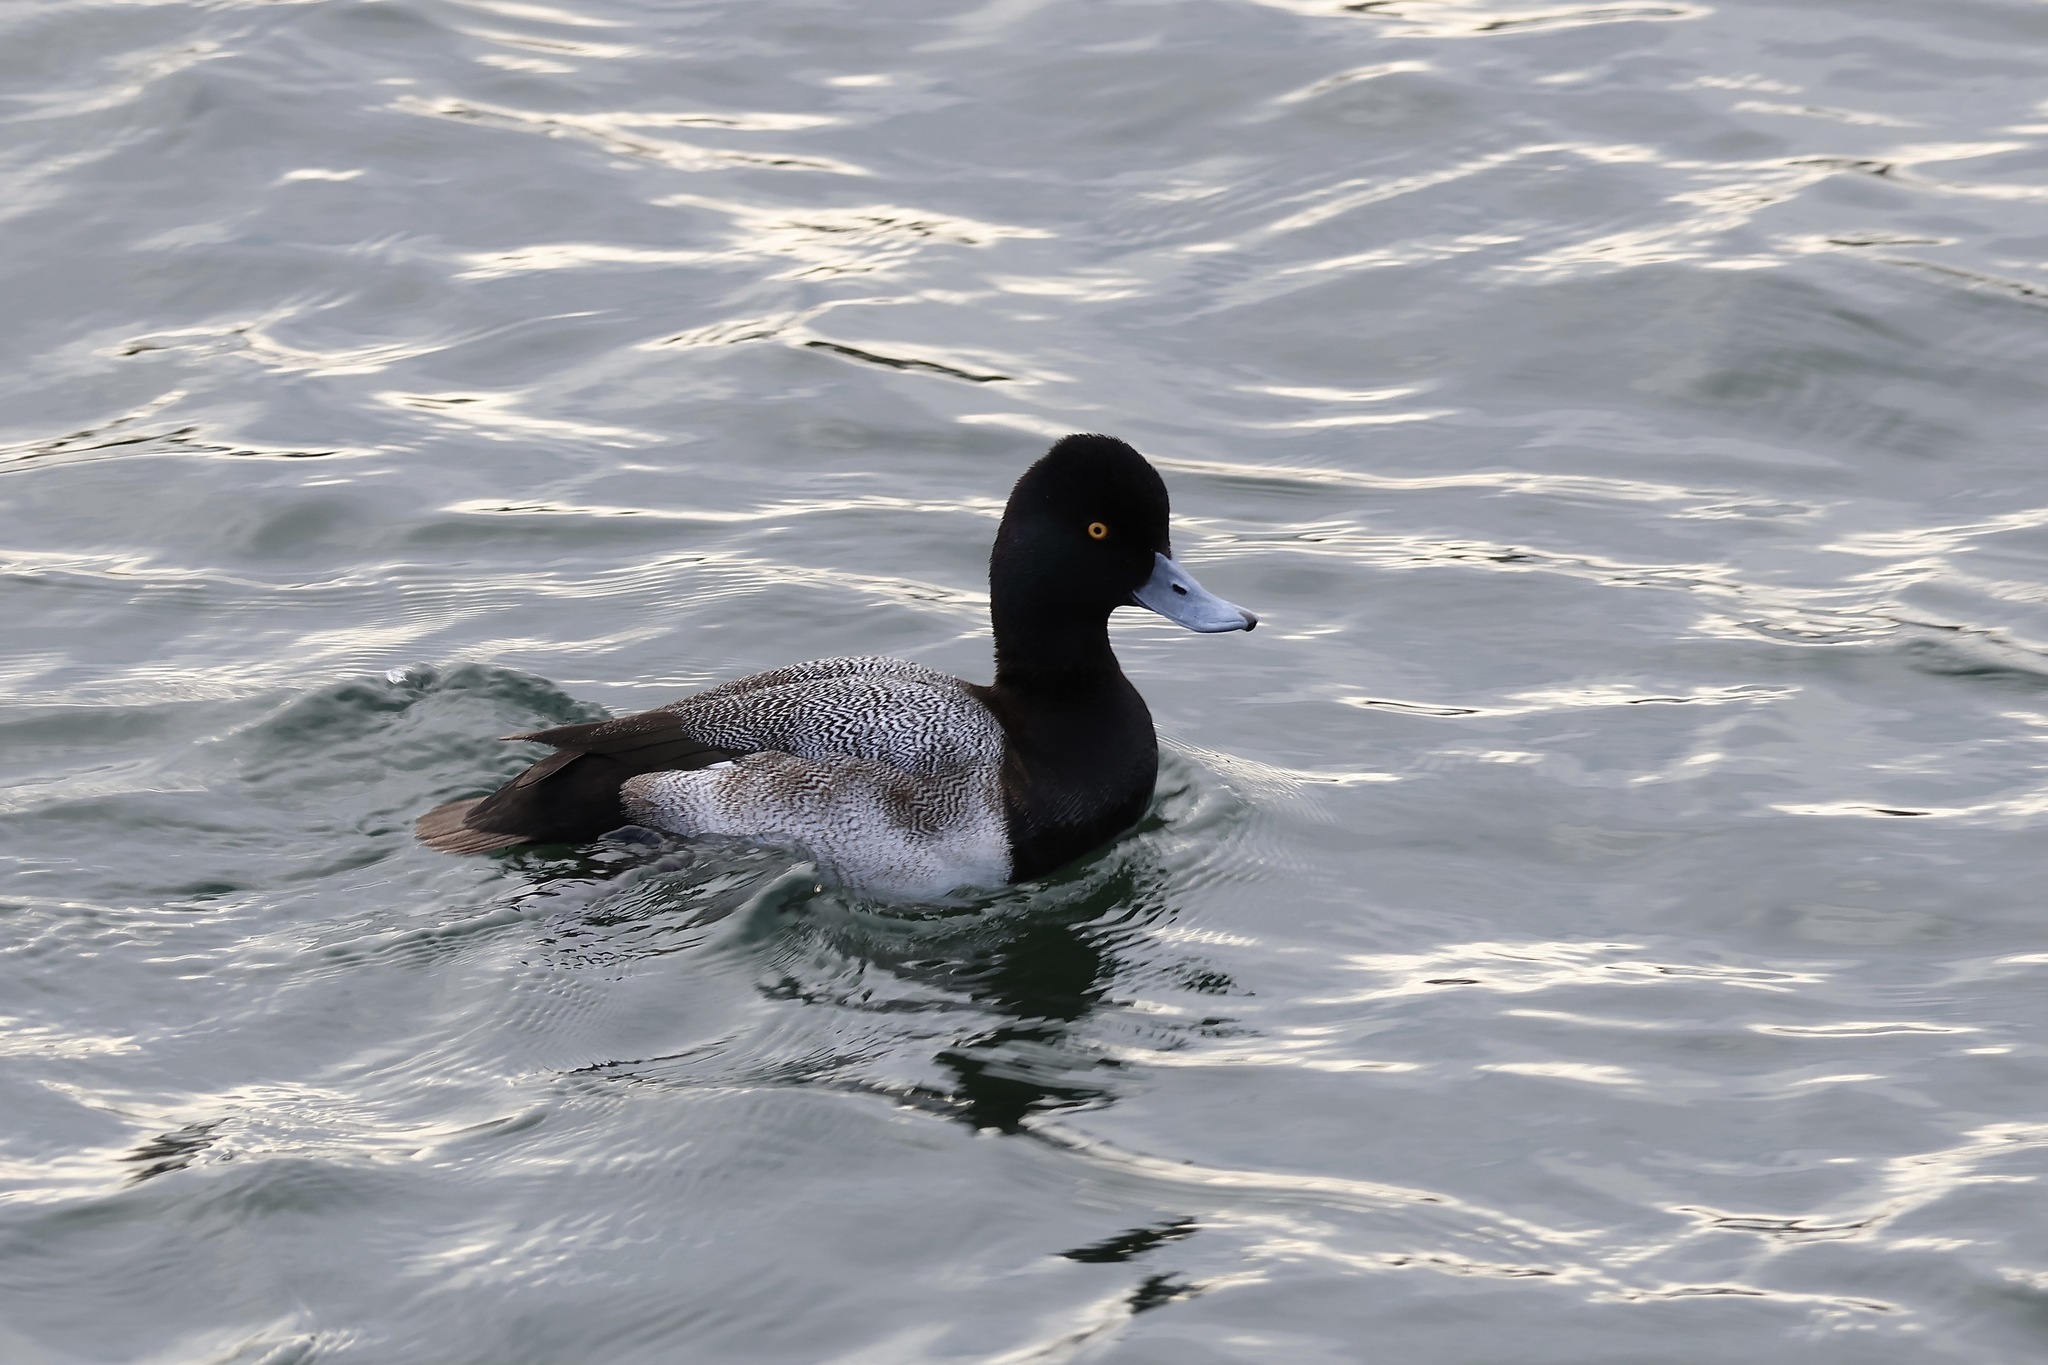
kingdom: Animalia
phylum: Chordata
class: Aves
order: Anseriformes
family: Anatidae
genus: Aythya
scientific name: Aythya affinis
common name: Lesser scaup
